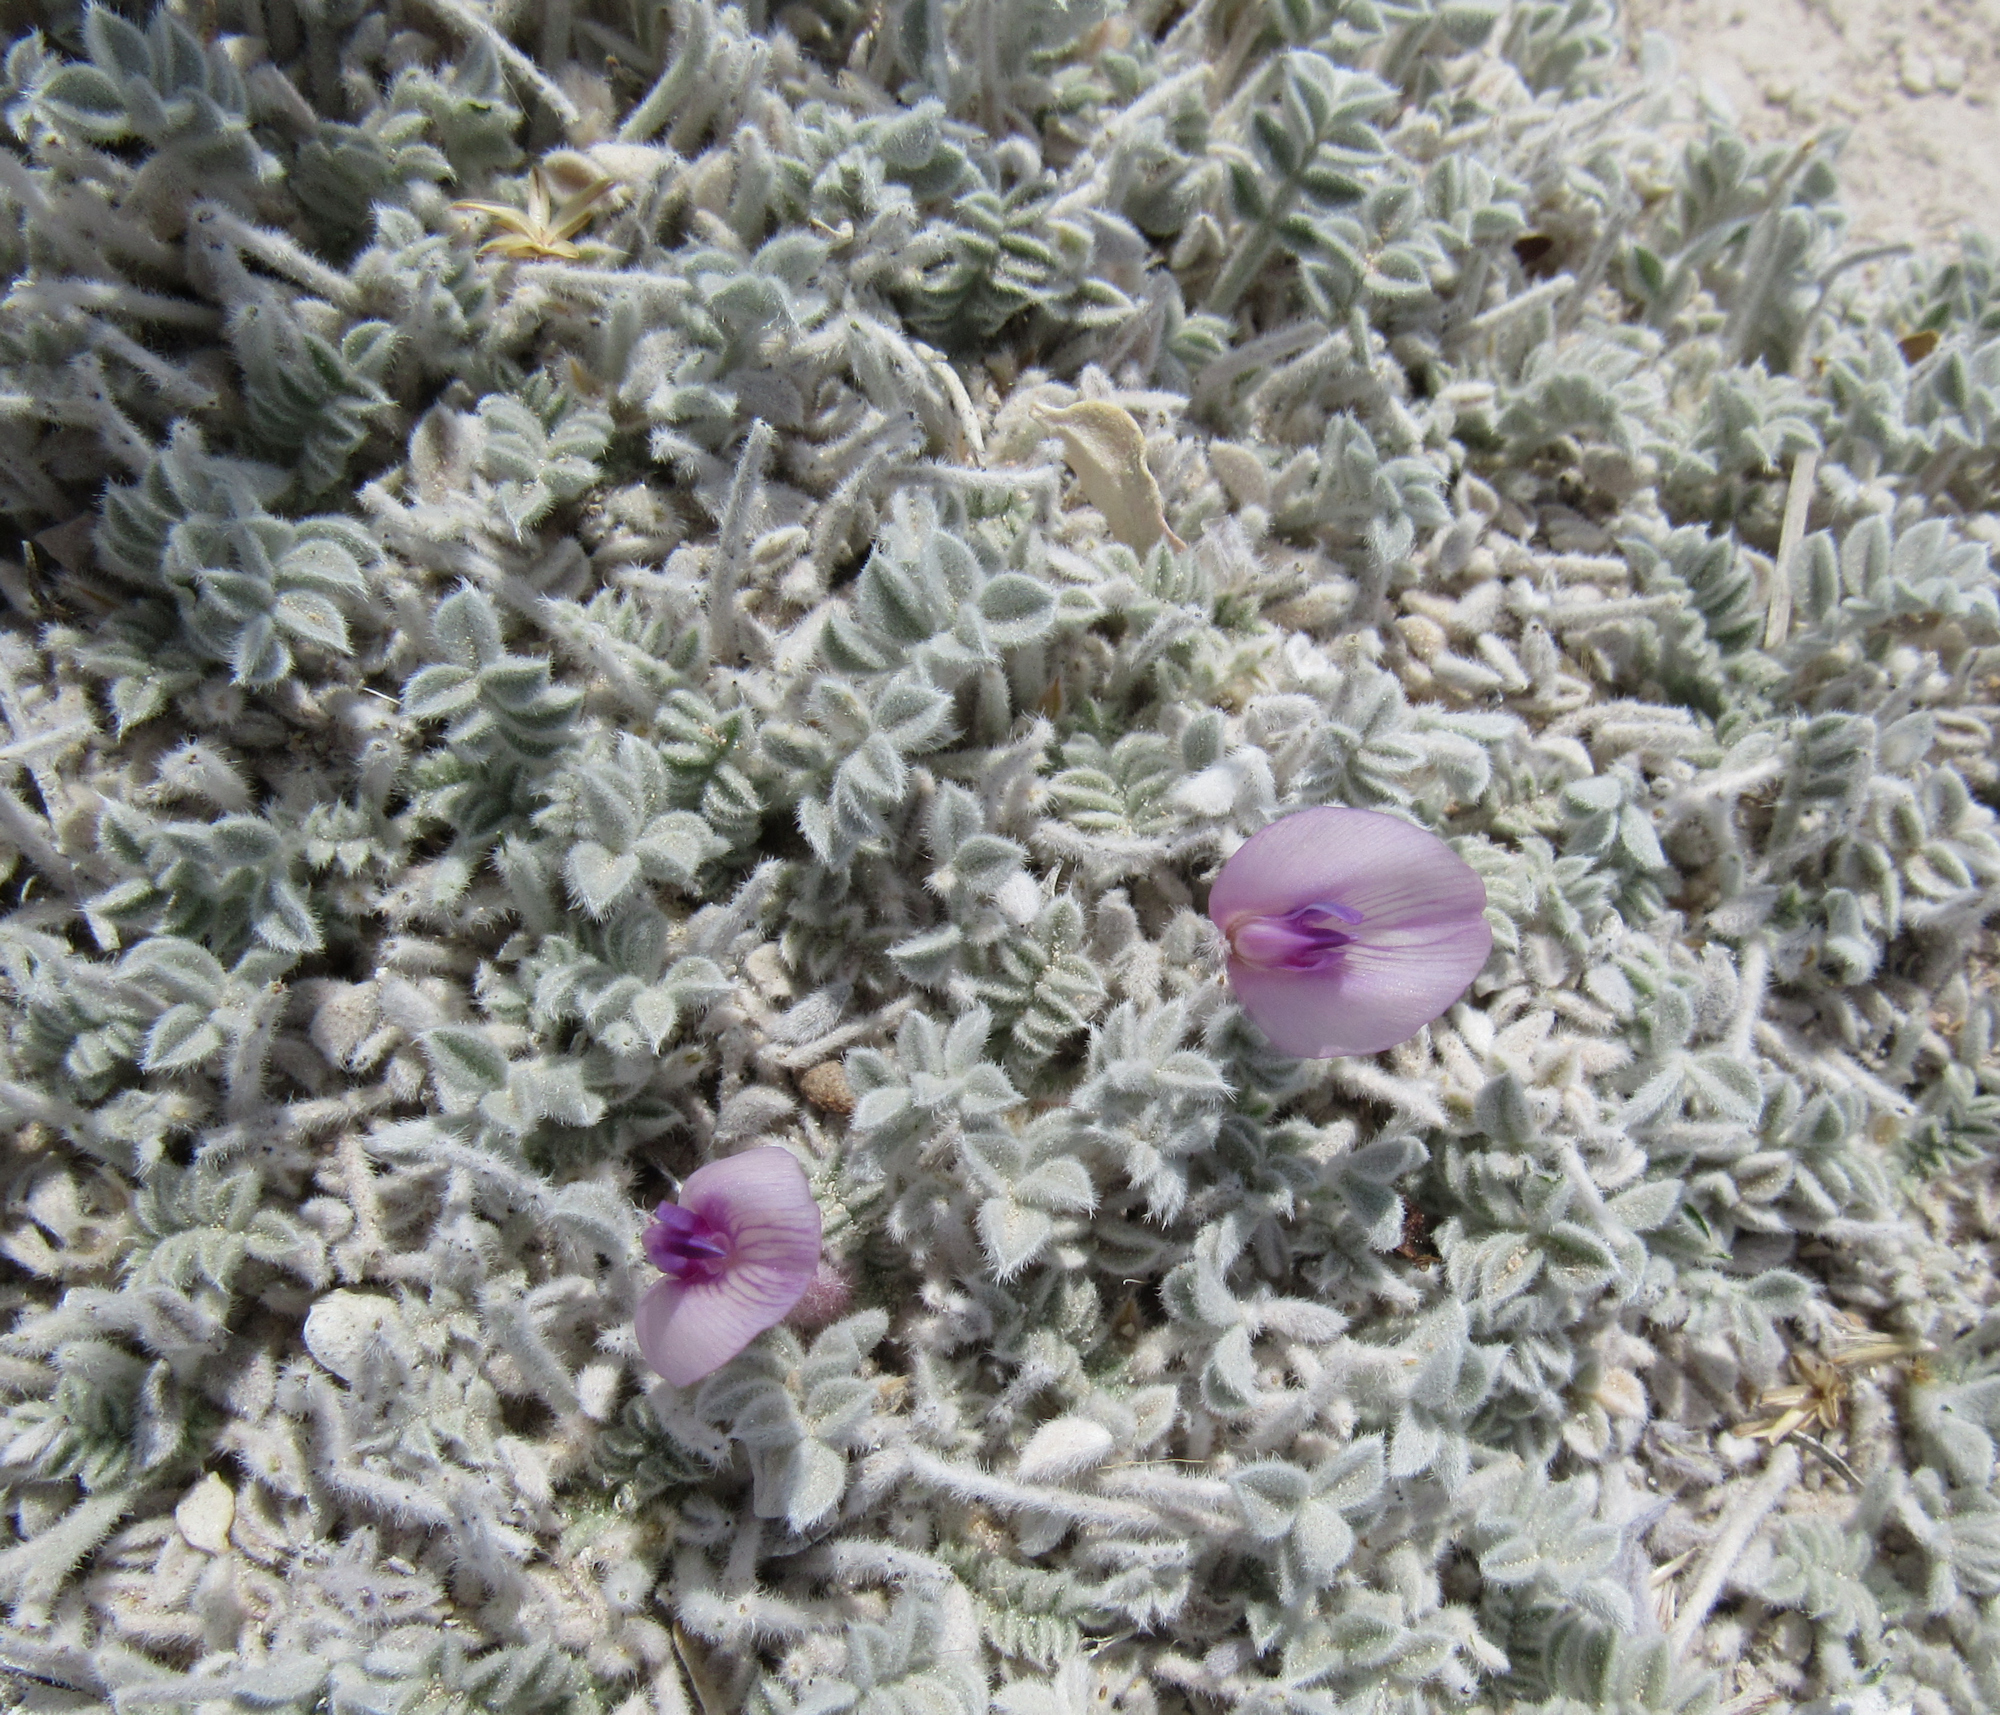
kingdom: Plantae
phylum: Tracheophyta
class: Magnoliopsida
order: Fabales
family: Fabaceae
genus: Astragalus
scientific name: Astragalus phoenix
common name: Ash meadows milk-vetch
